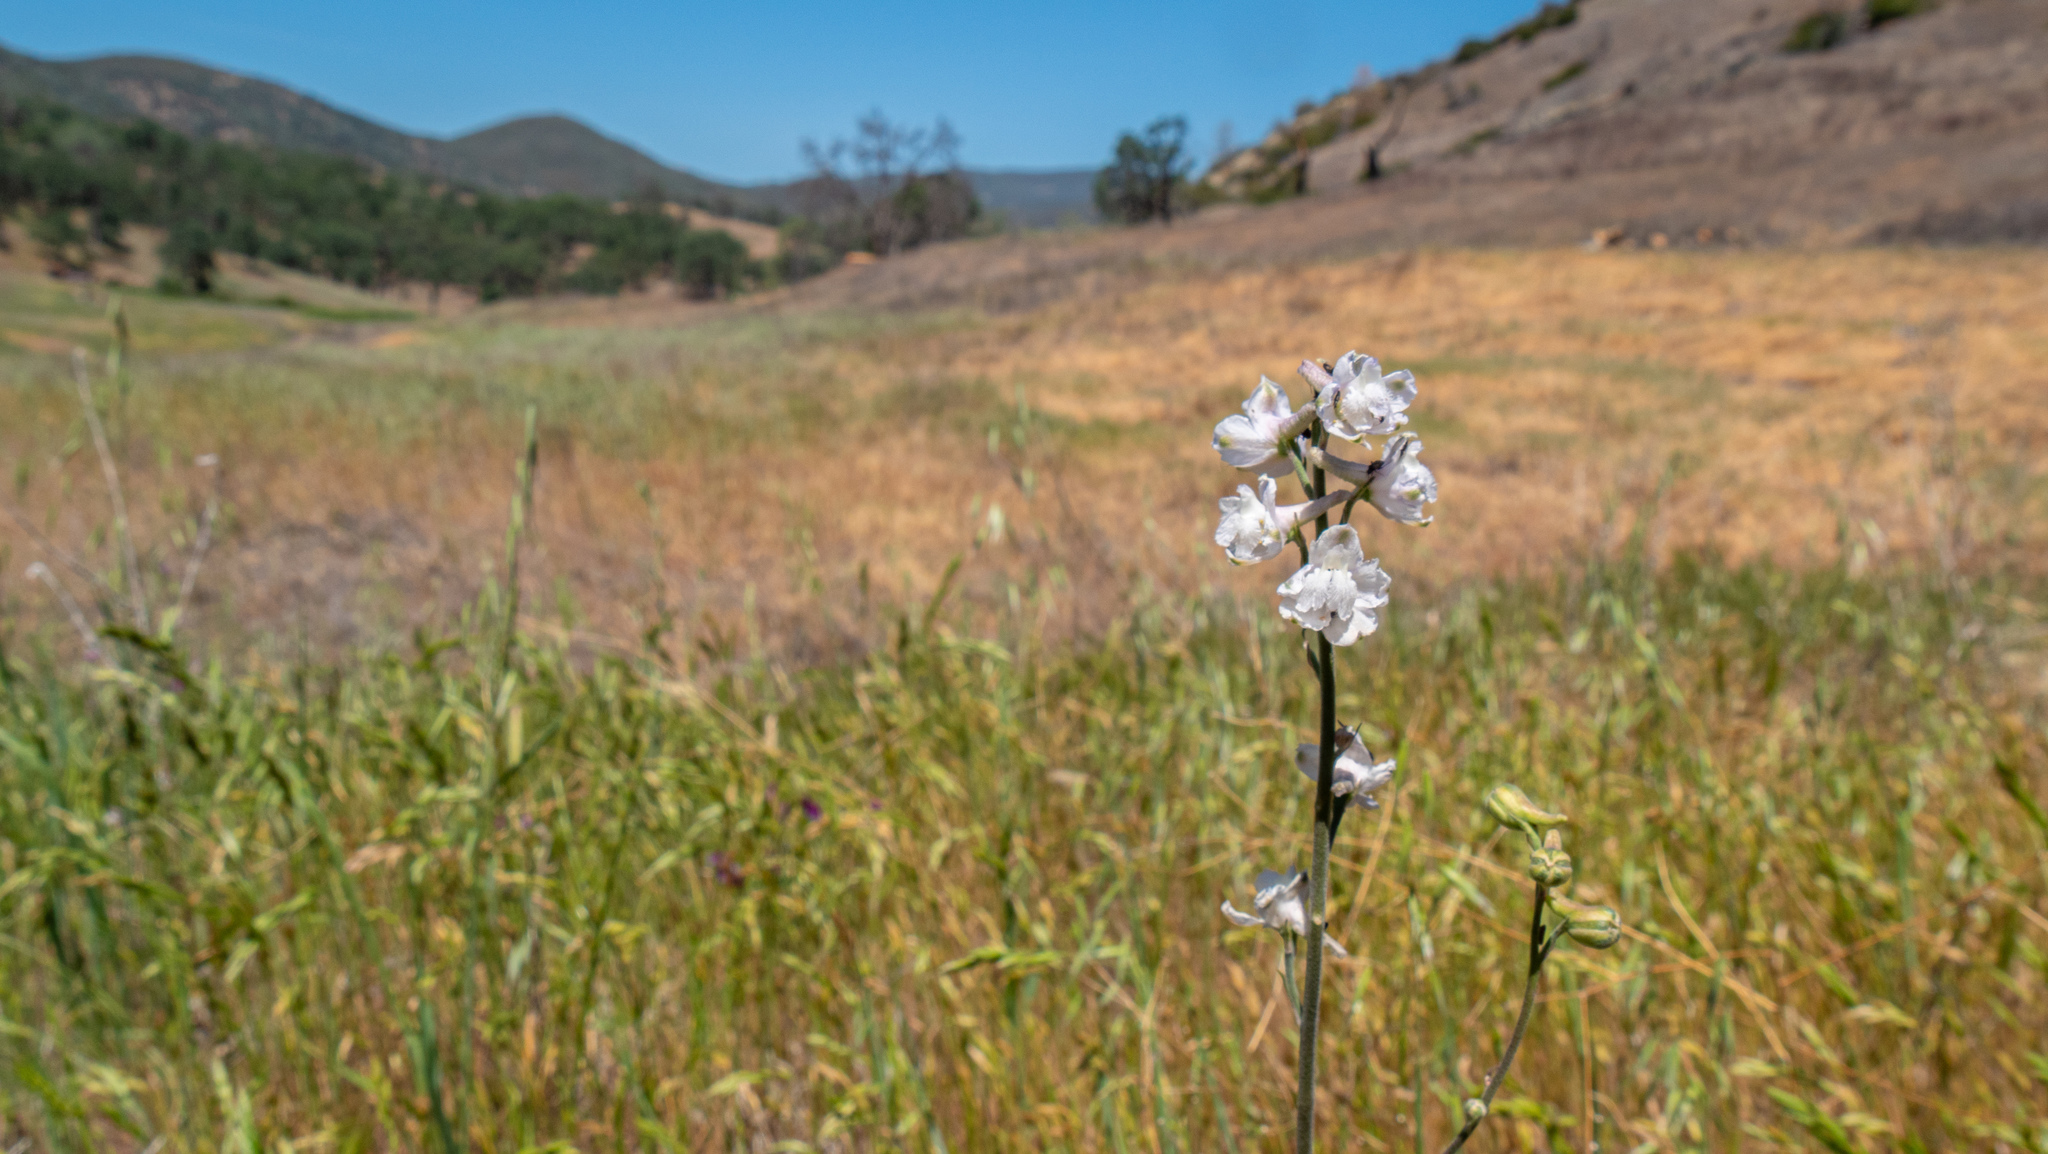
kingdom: Plantae
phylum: Tracheophyta
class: Magnoliopsida
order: Ranunculales
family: Ranunculaceae
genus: Delphinium
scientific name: Delphinium hesperium
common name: Western larkspur
